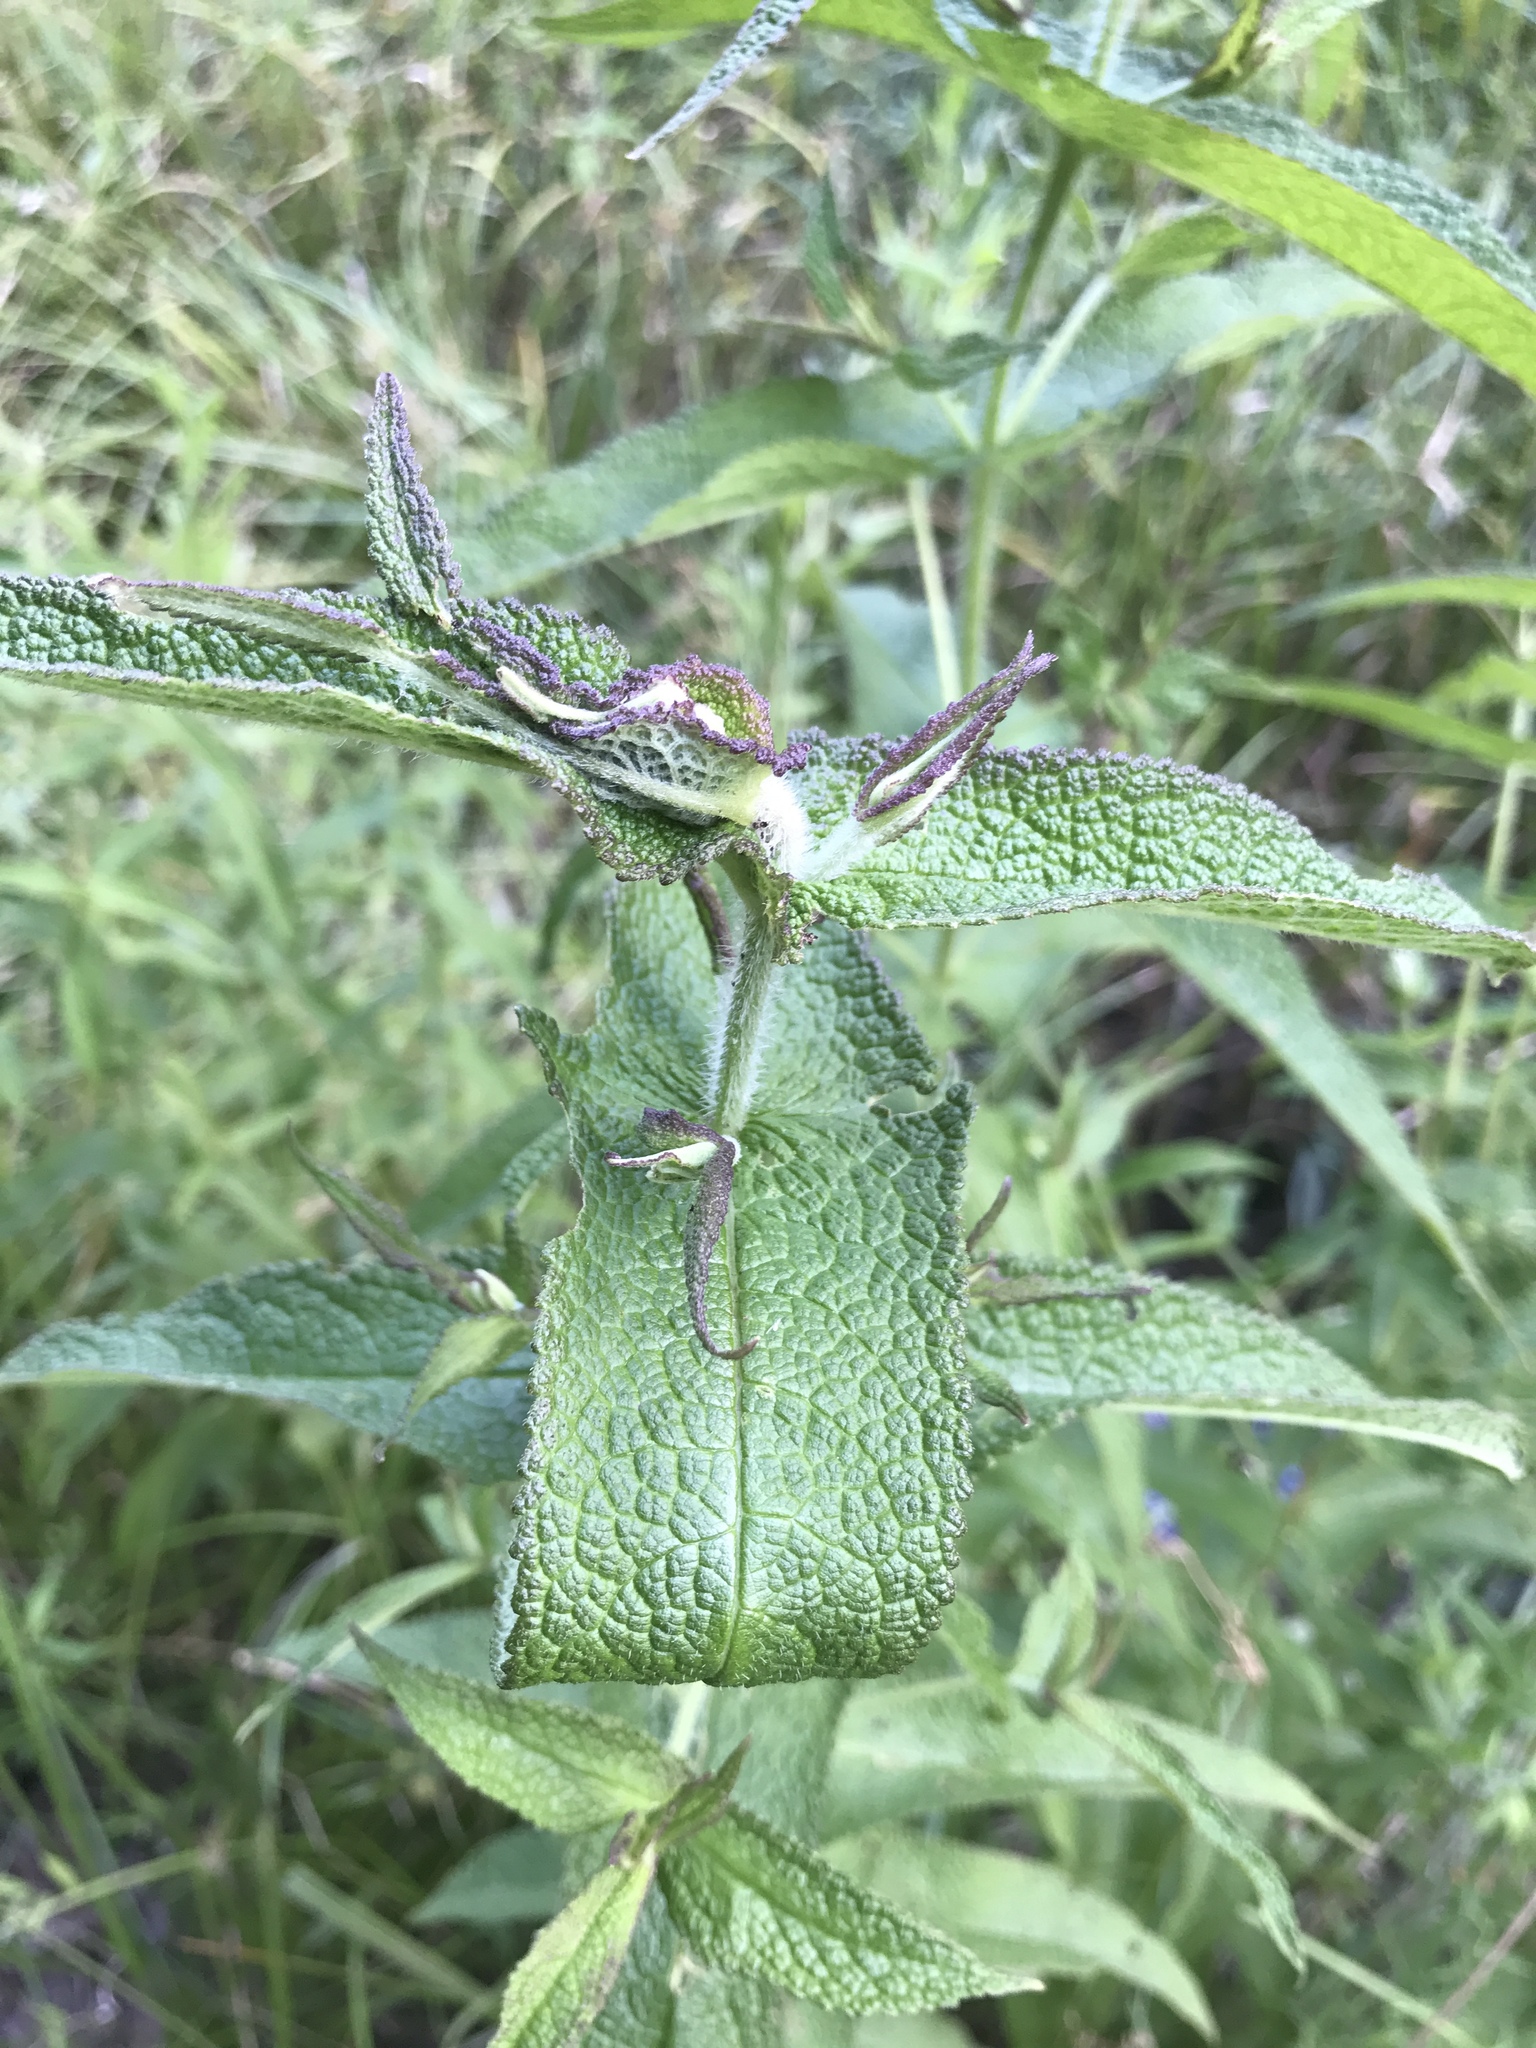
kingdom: Plantae
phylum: Tracheophyta
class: Magnoliopsida
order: Asterales
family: Asteraceae
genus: Eupatorium
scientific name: Eupatorium perfoliatum
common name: Boneset
